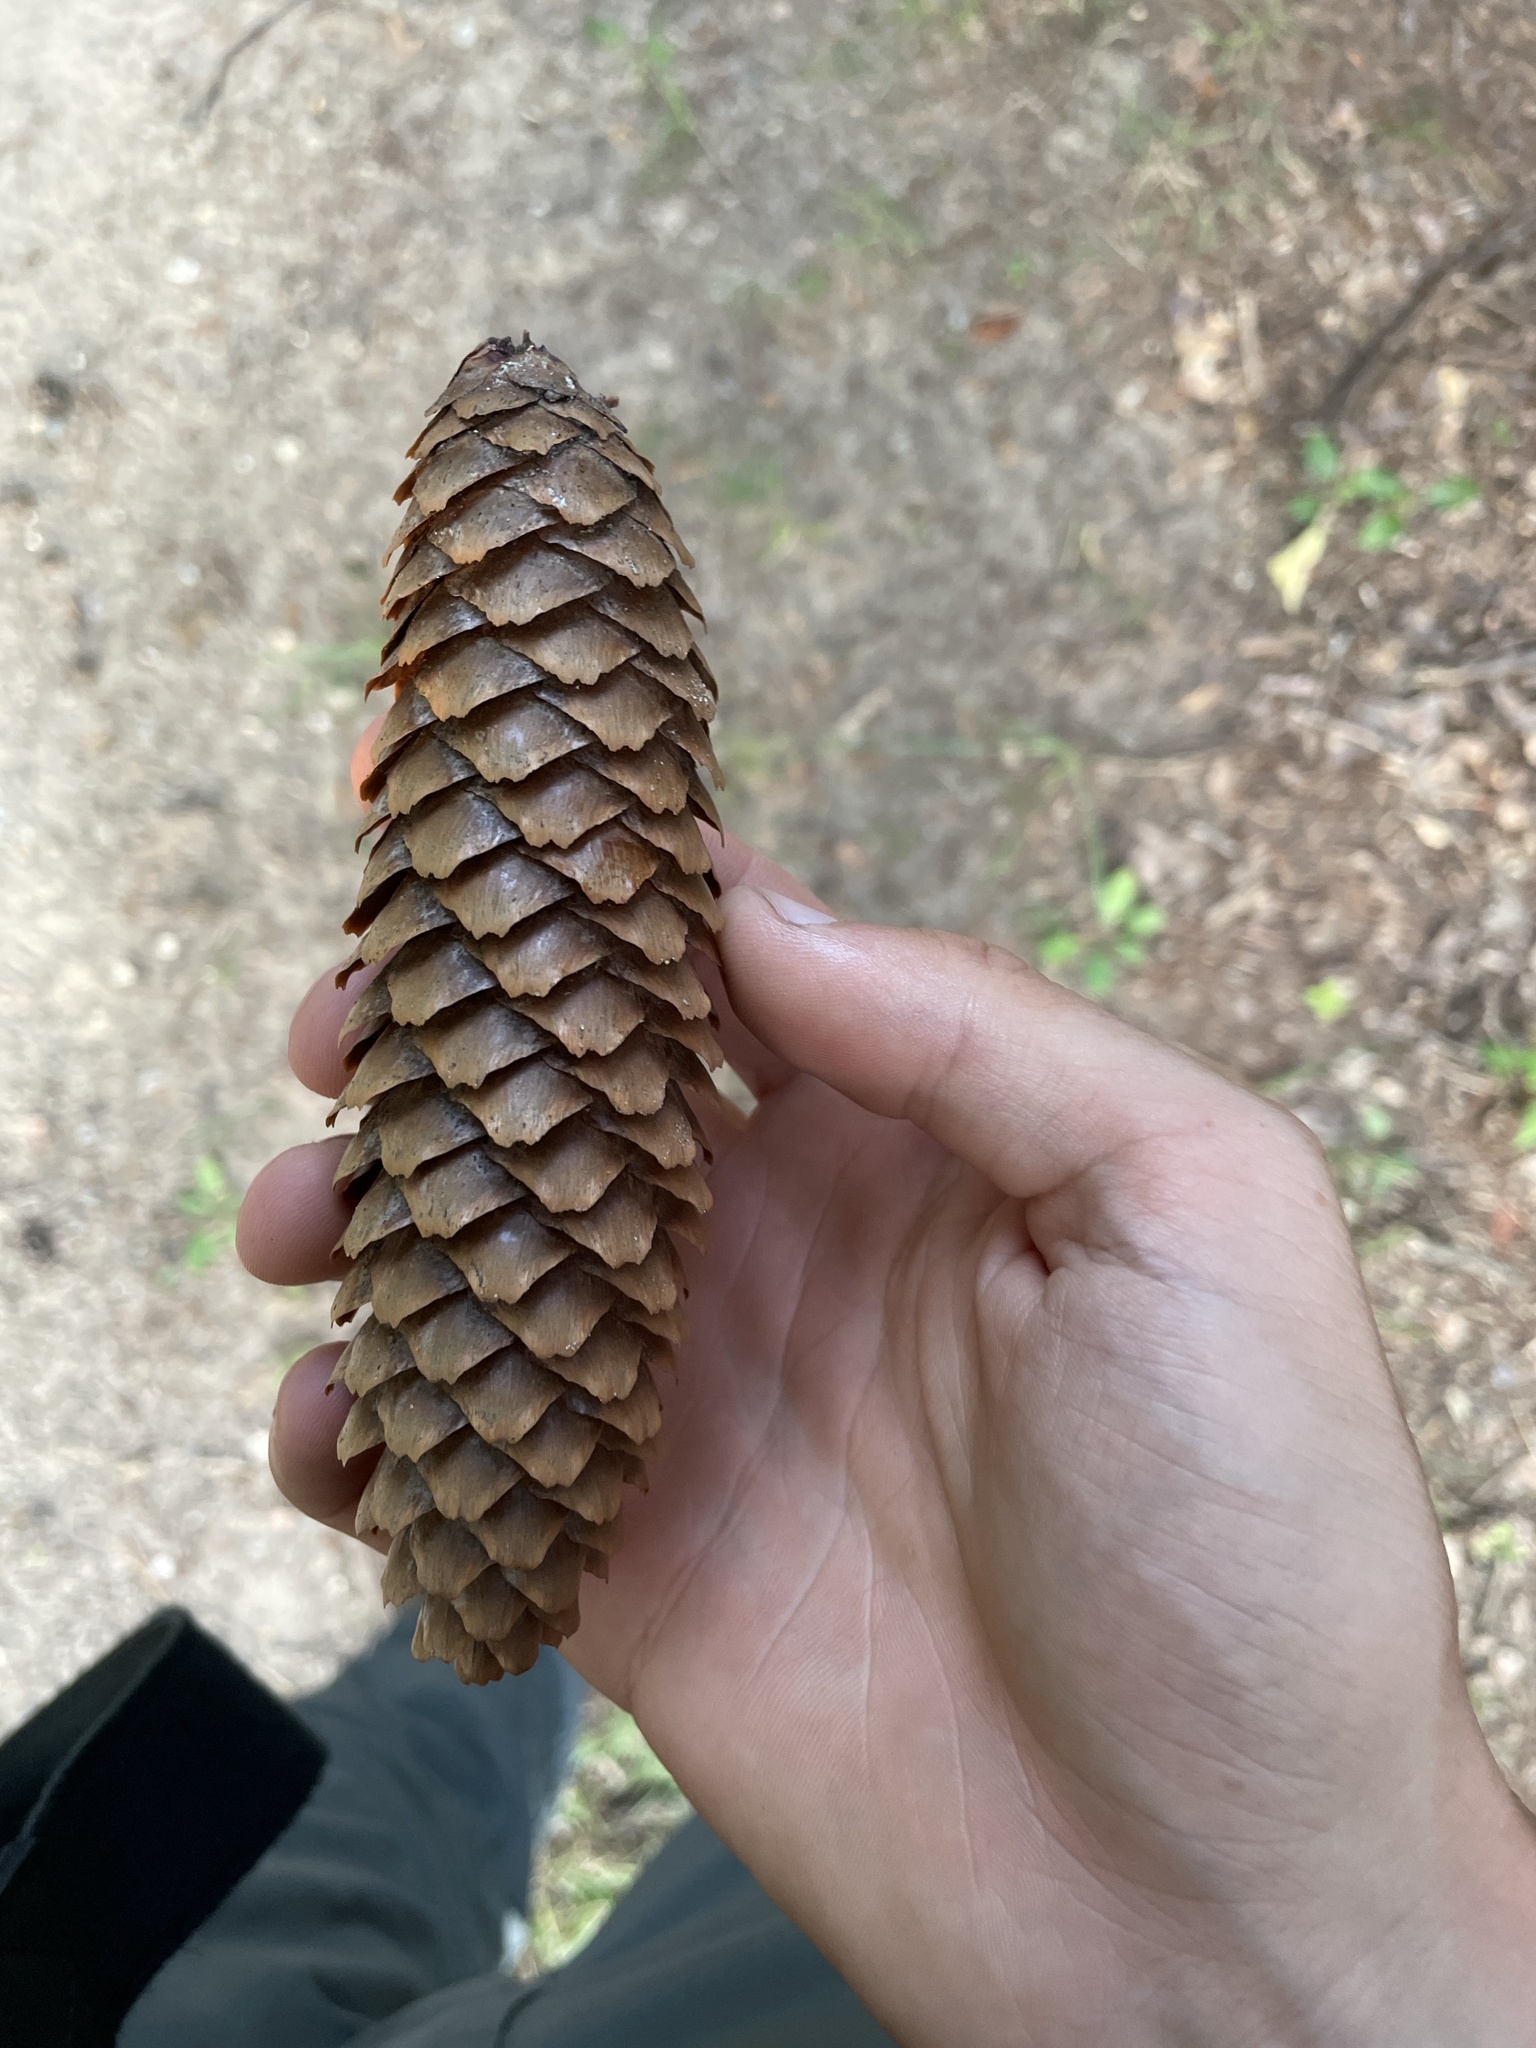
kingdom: Plantae
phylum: Tracheophyta
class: Pinopsida
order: Pinales
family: Pinaceae
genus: Picea
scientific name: Picea abies
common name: Norway spruce
